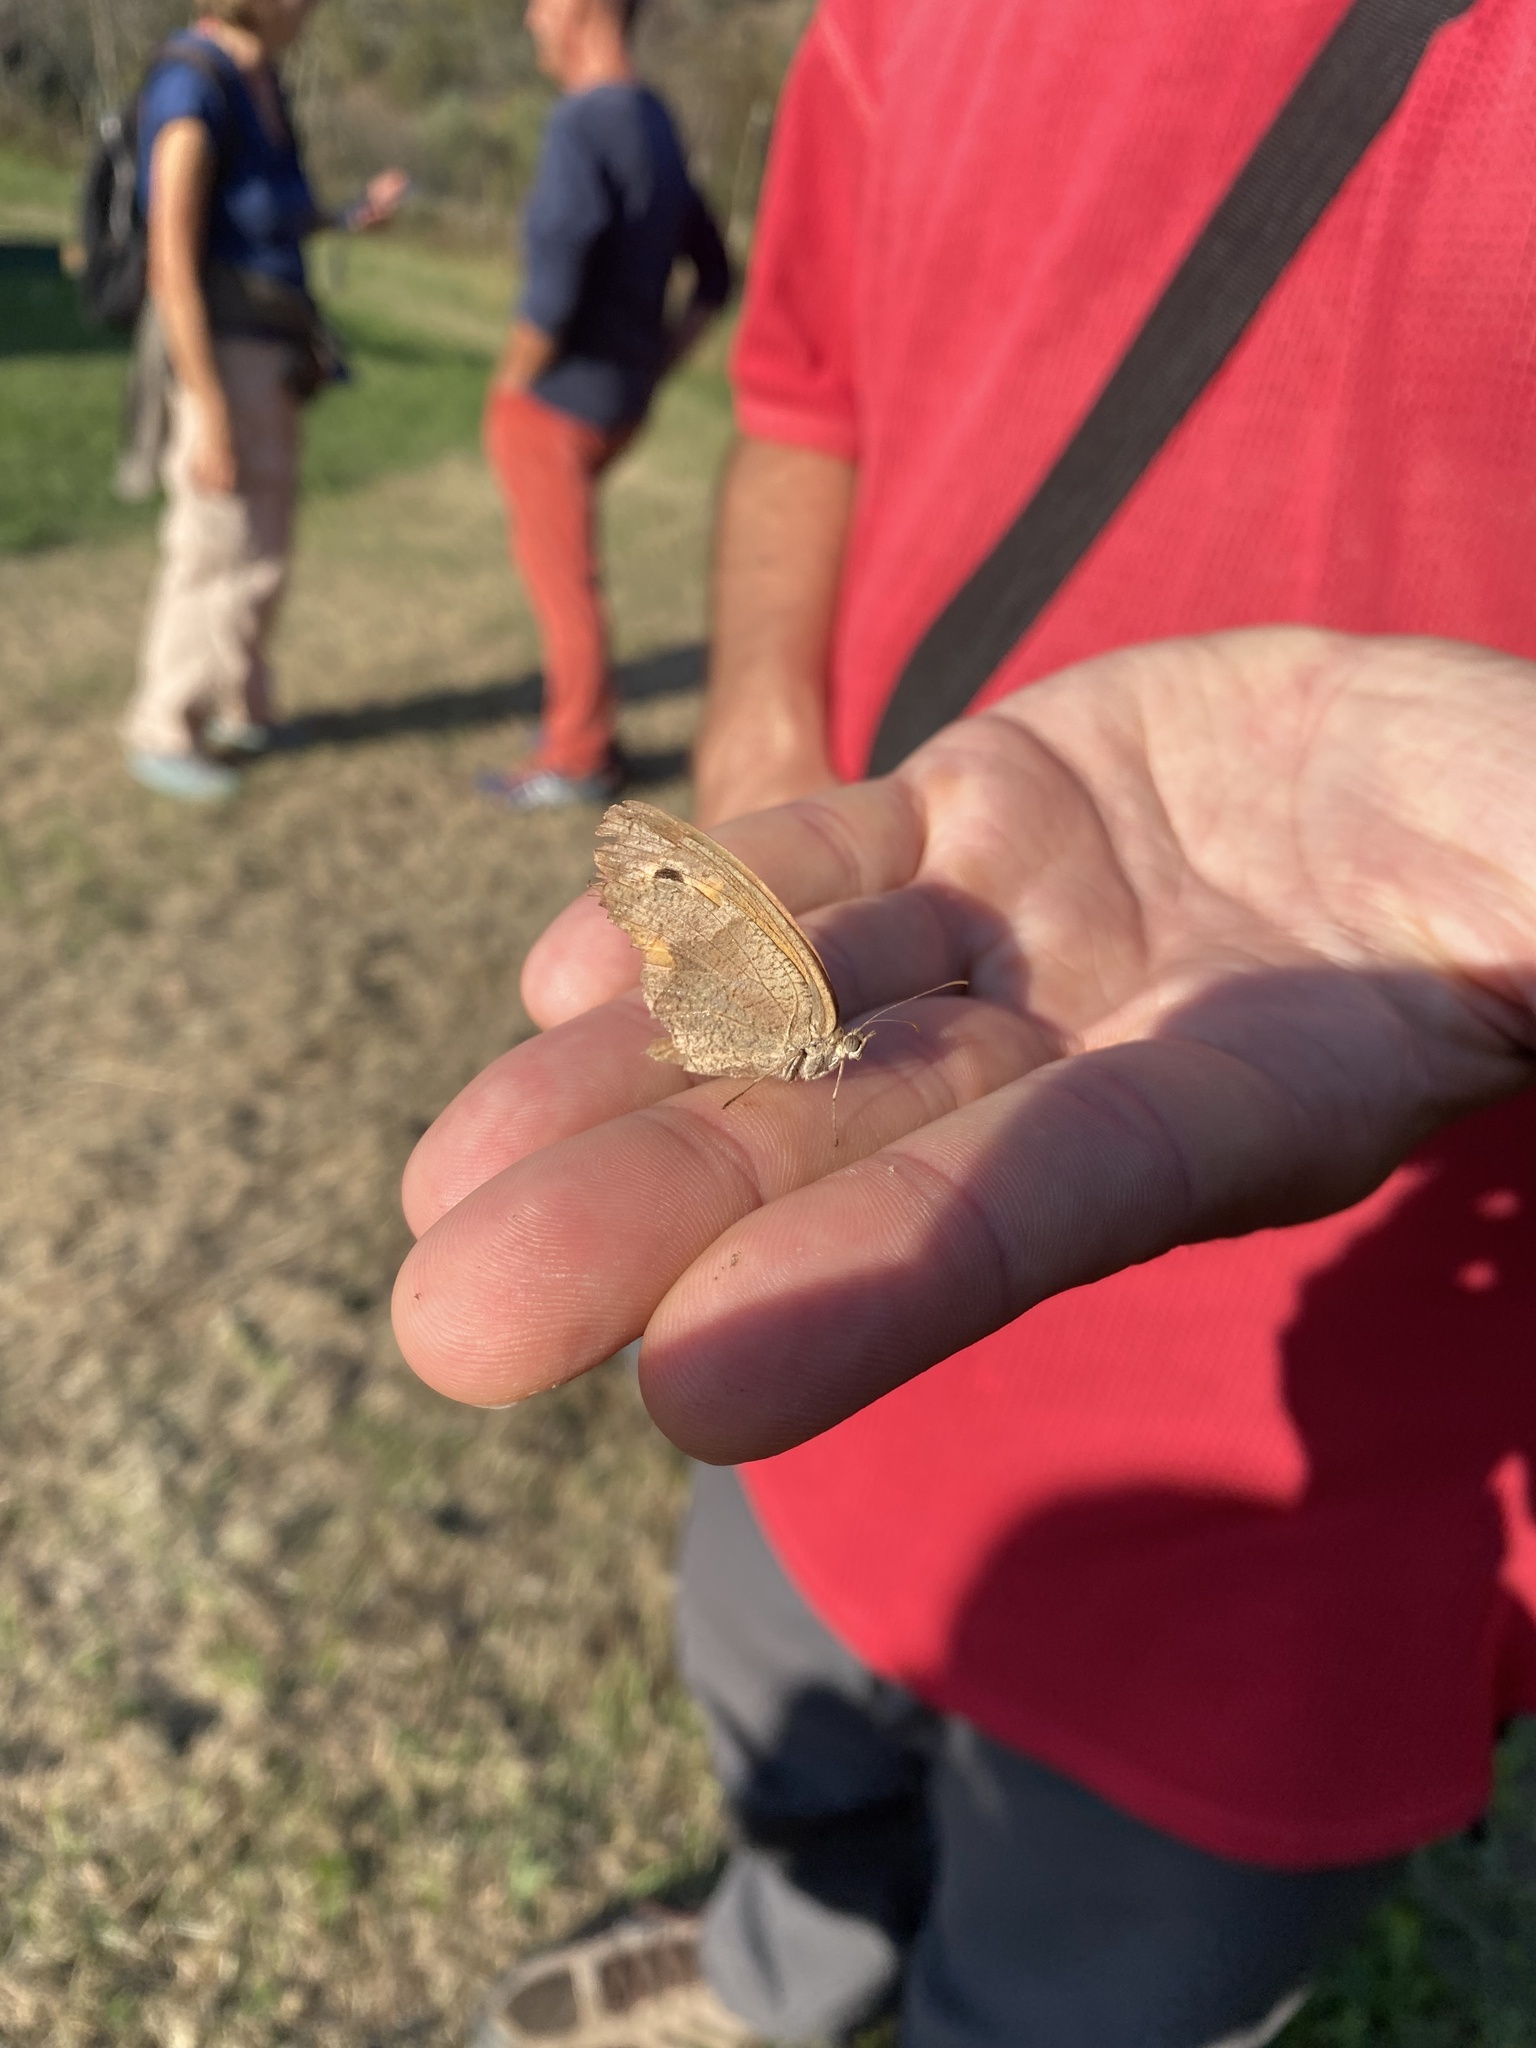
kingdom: Animalia
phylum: Arthropoda
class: Insecta
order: Lepidoptera
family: Nymphalidae
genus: Maniola
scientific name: Maniola jurtina
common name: Meadow brown
